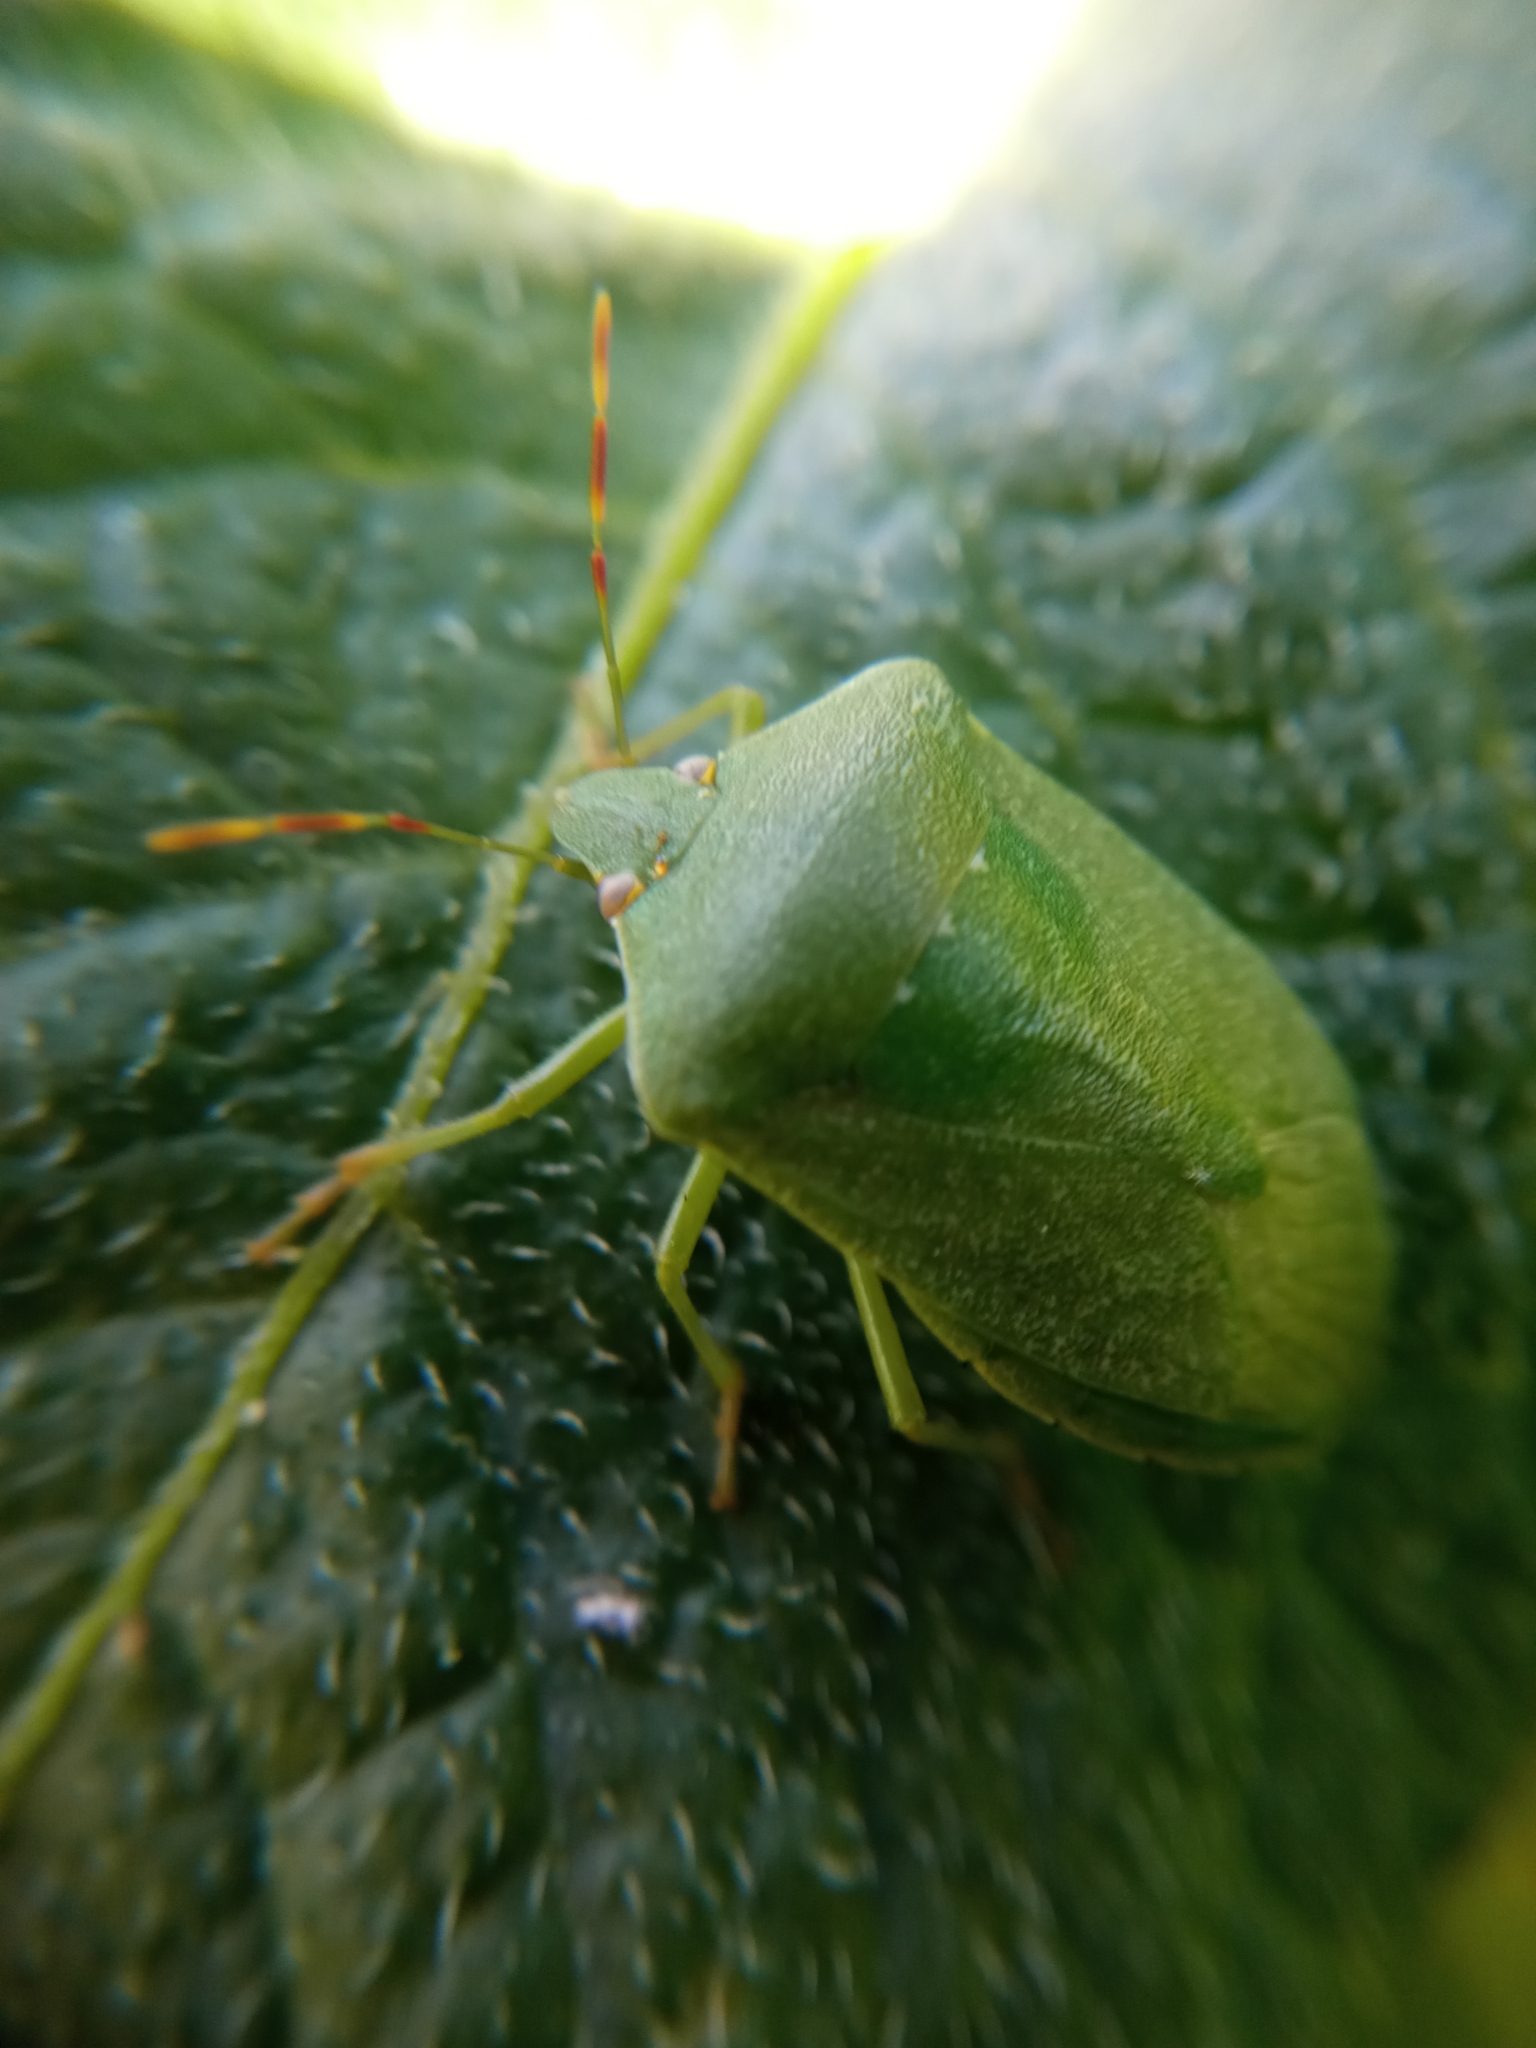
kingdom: Animalia
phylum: Arthropoda
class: Insecta
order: Hemiptera
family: Pentatomidae
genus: Nezara
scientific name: Nezara viridula
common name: Southern green stink bug
